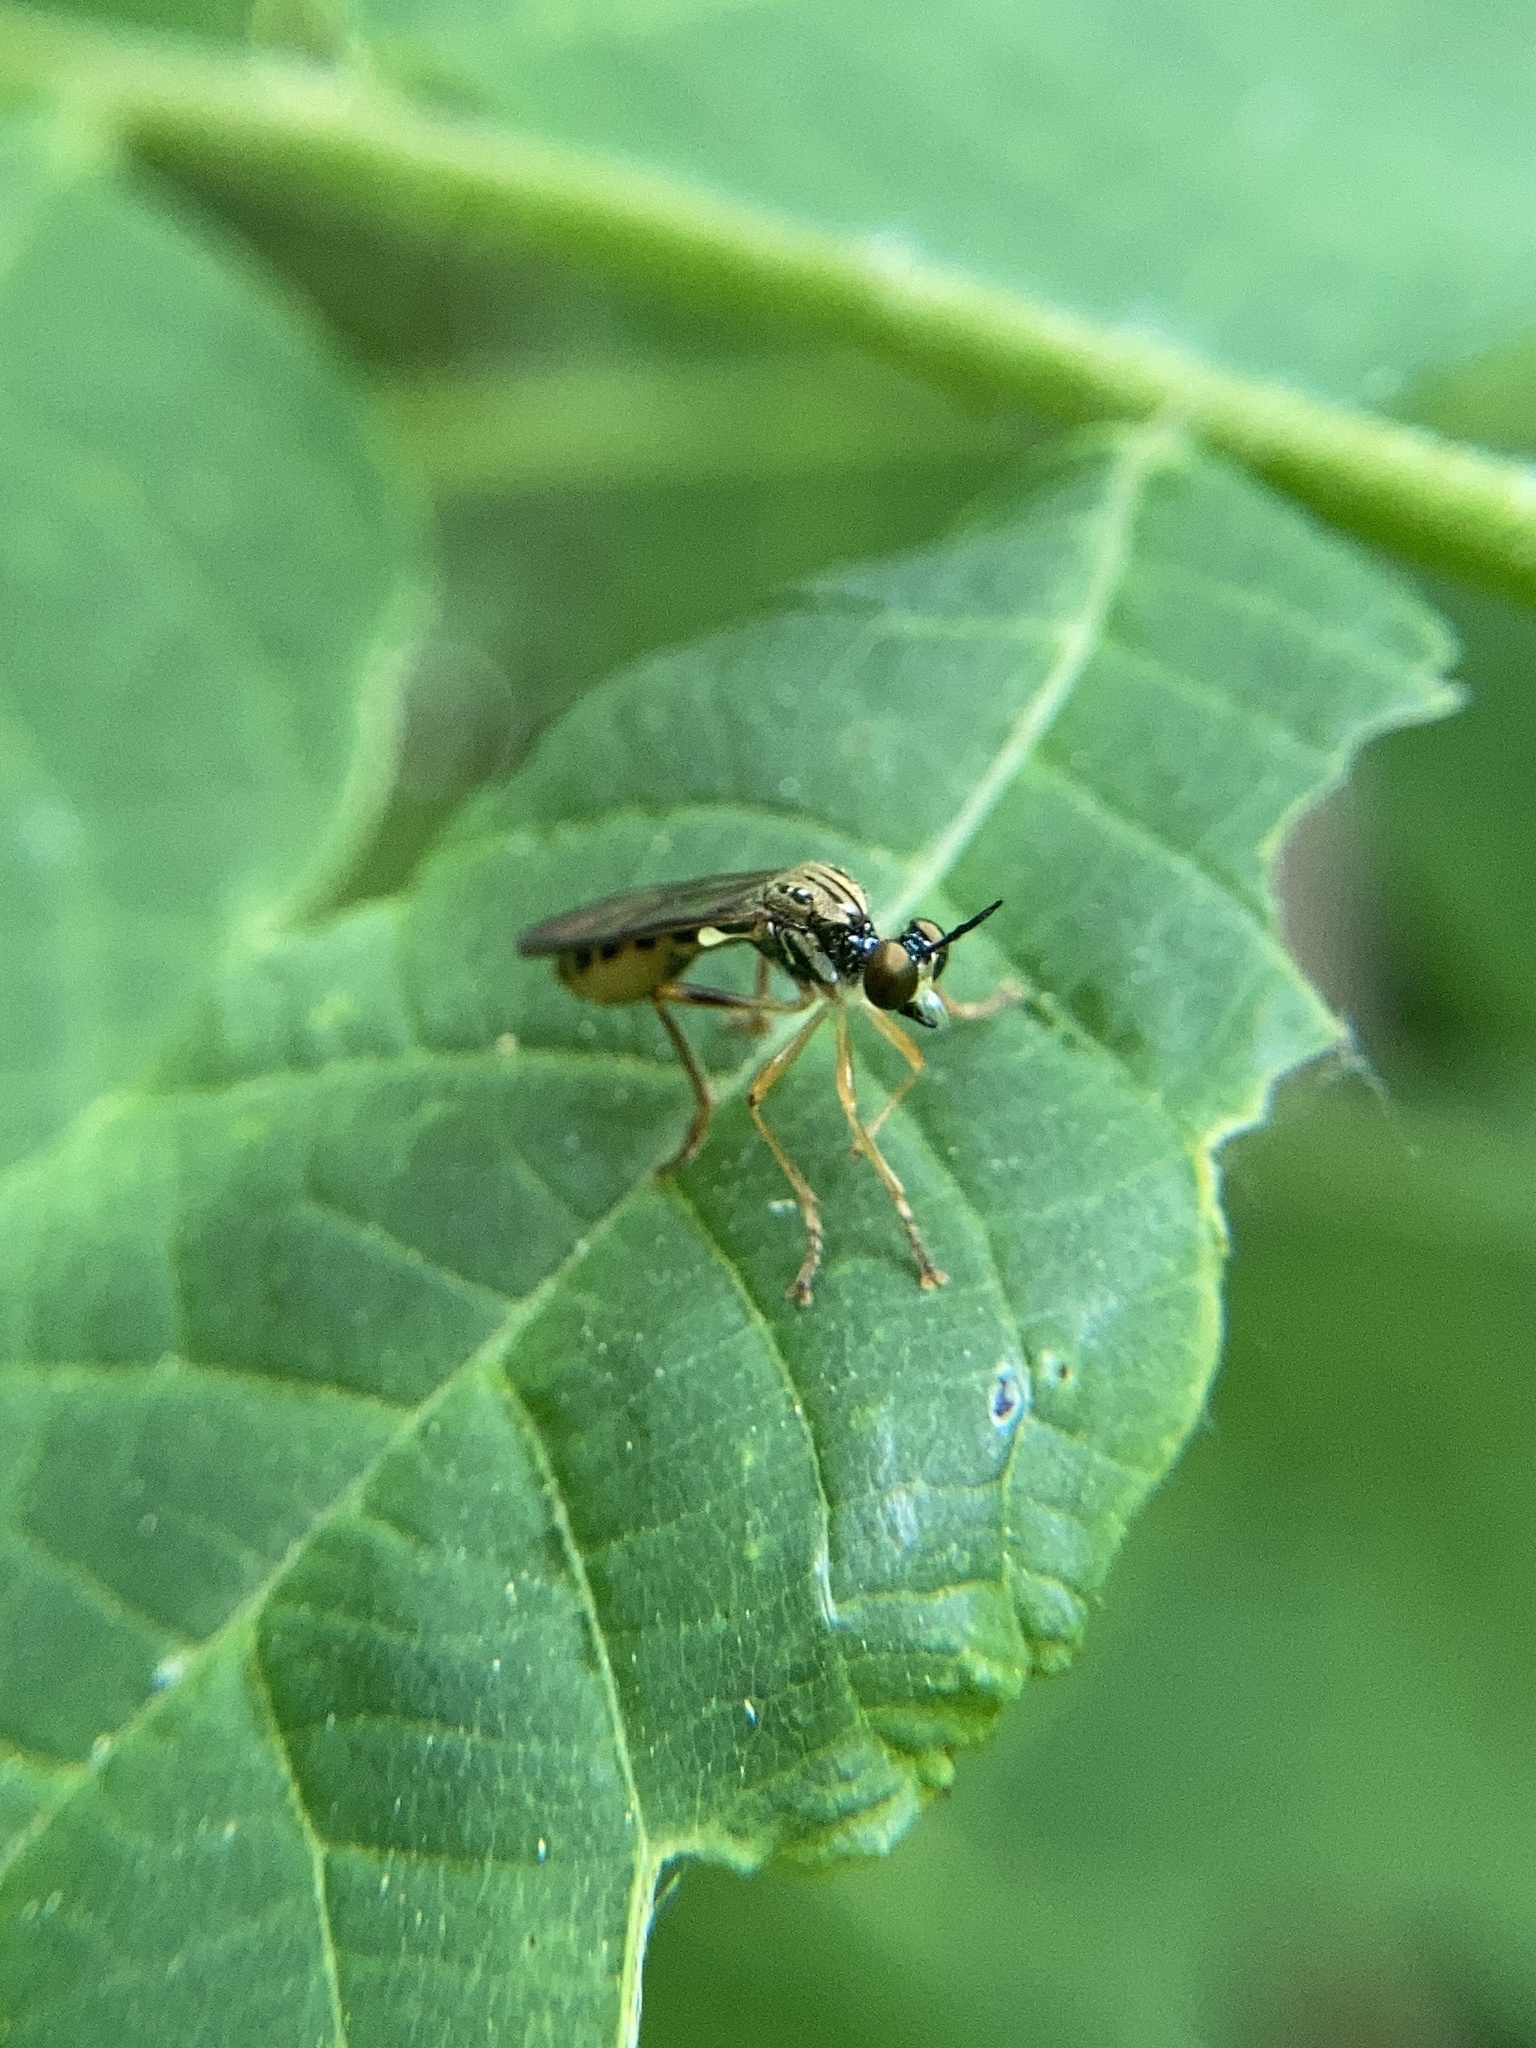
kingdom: Animalia
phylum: Arthropoda
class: Insecta
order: Diptera
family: Asilidae
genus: Dioctria
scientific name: Dioctria linearis
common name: Small yellow-legged robberfly
